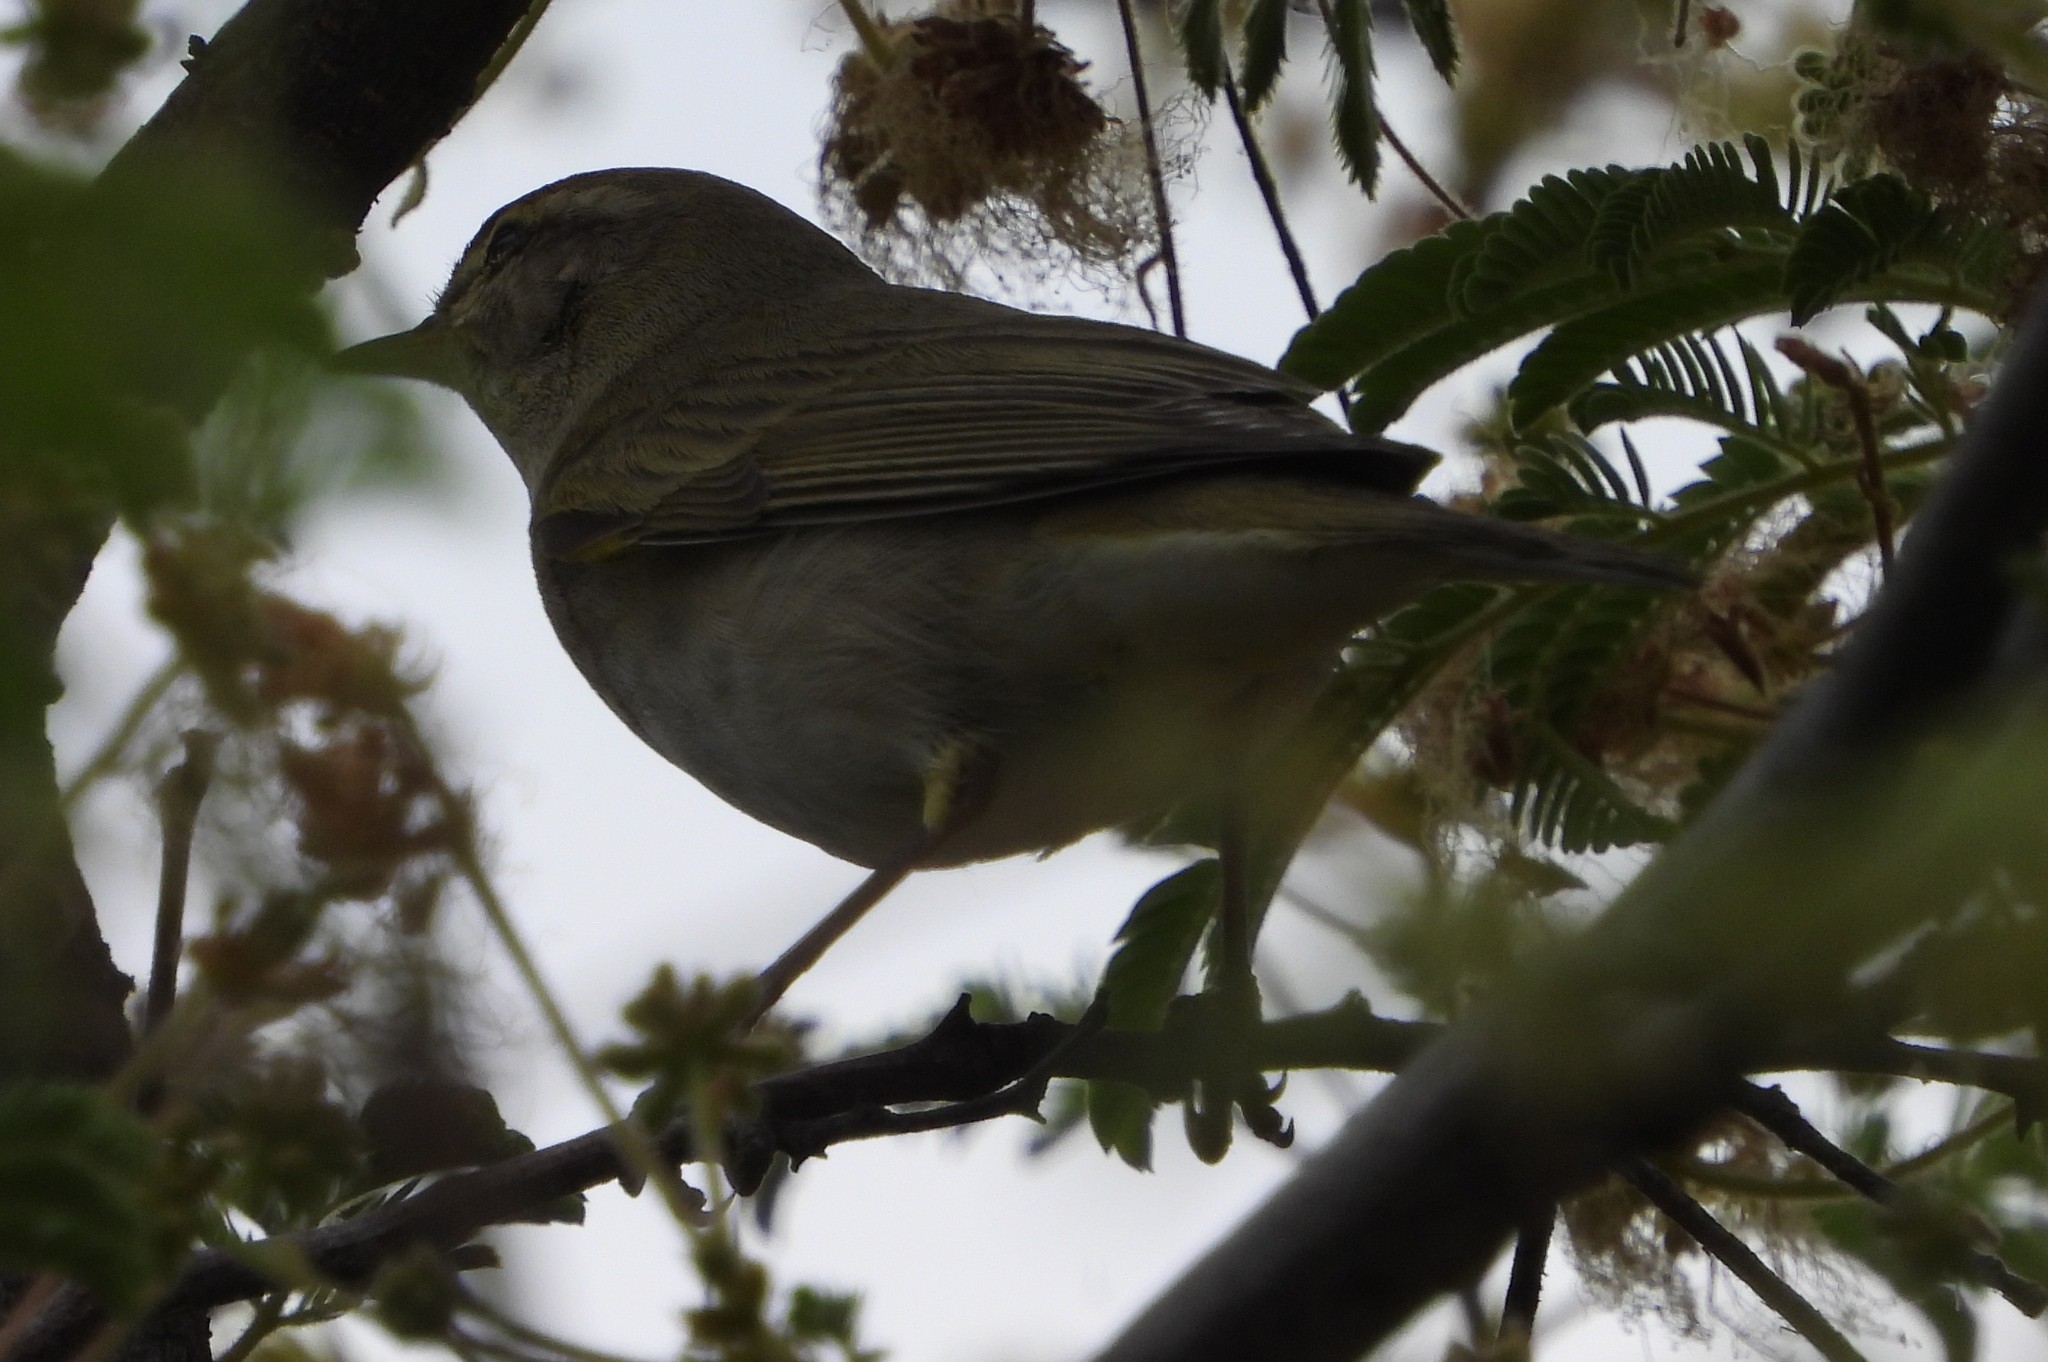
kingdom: Animalia
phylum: Chordata
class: Aves
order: Passeriformes
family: Phylloscopidae
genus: Phylloscopus
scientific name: Phylloscopus trochilus
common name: Willow warbler
